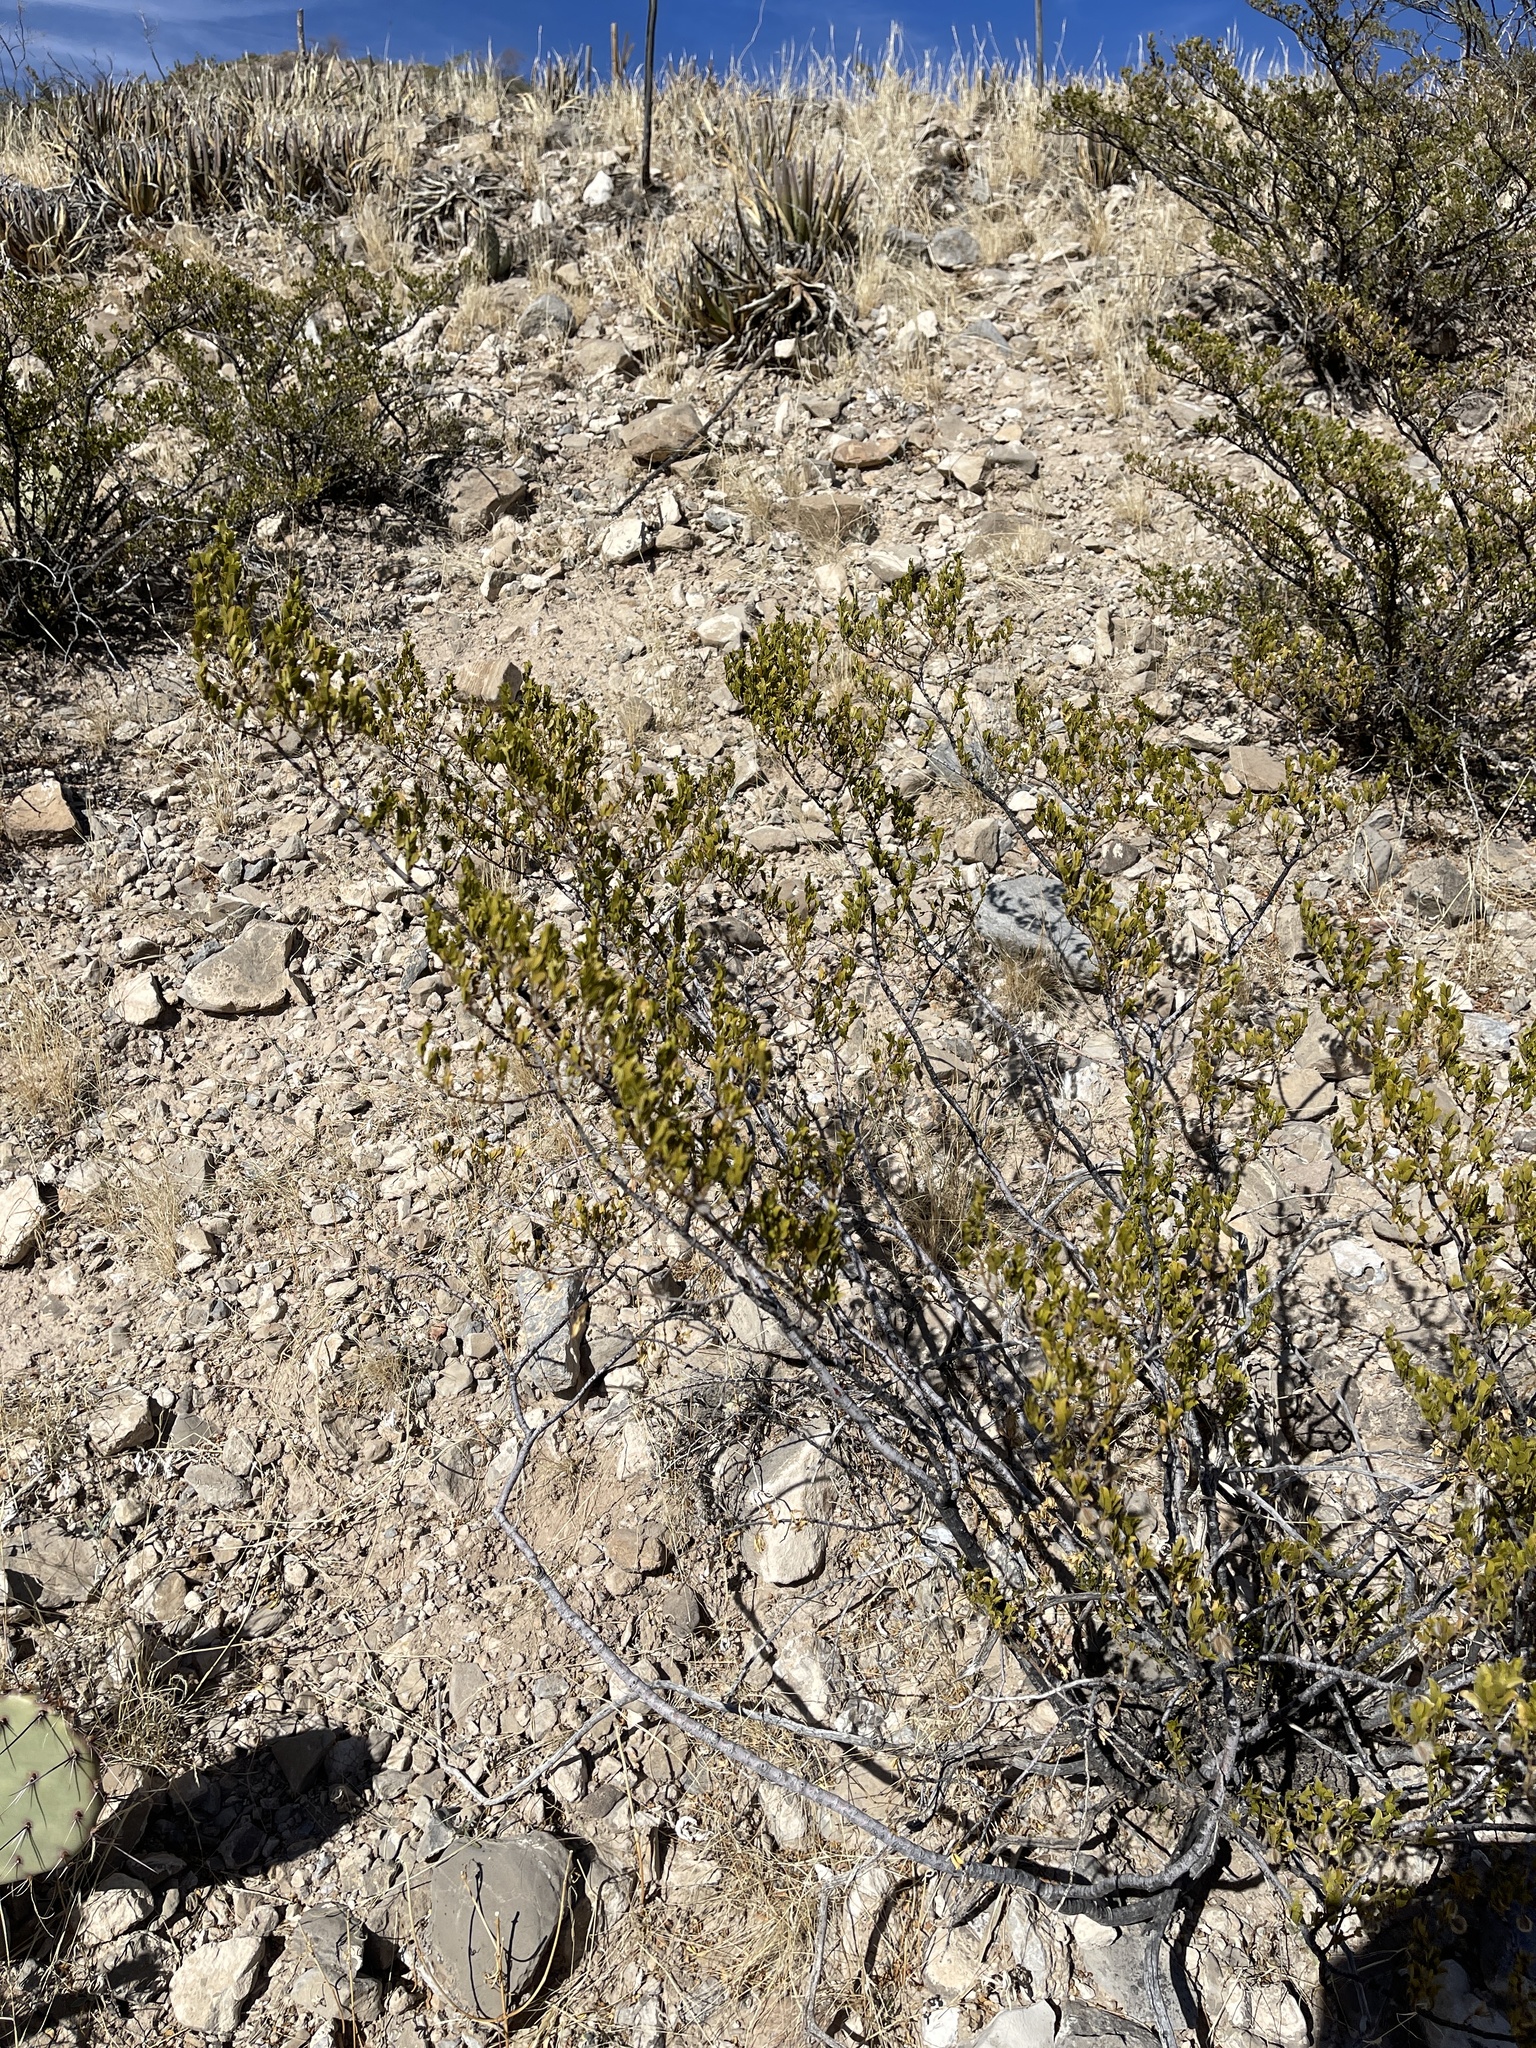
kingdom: Plantae
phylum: Tracheophyta
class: Magnoliopsida
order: Zygophyllales
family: Zygophyllaceae
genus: Larrea
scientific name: Larrea tridentata
